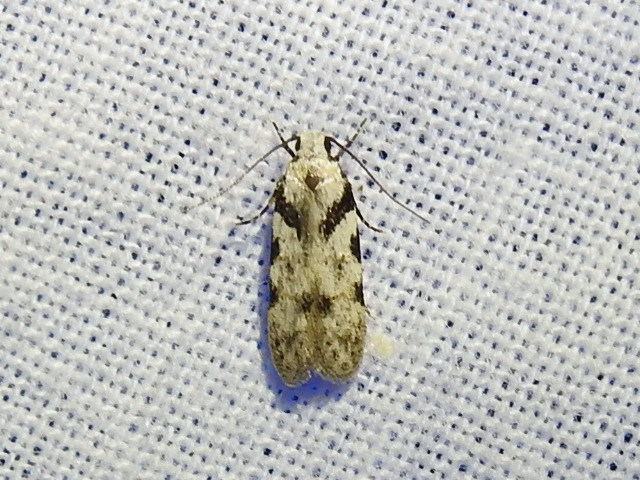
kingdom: Animalia
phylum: Arthropoda
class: Insecta
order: Lepidoptera
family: Gelechiidae
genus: Pseudotelphusa
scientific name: Pseudotelphusa palliderosacella
